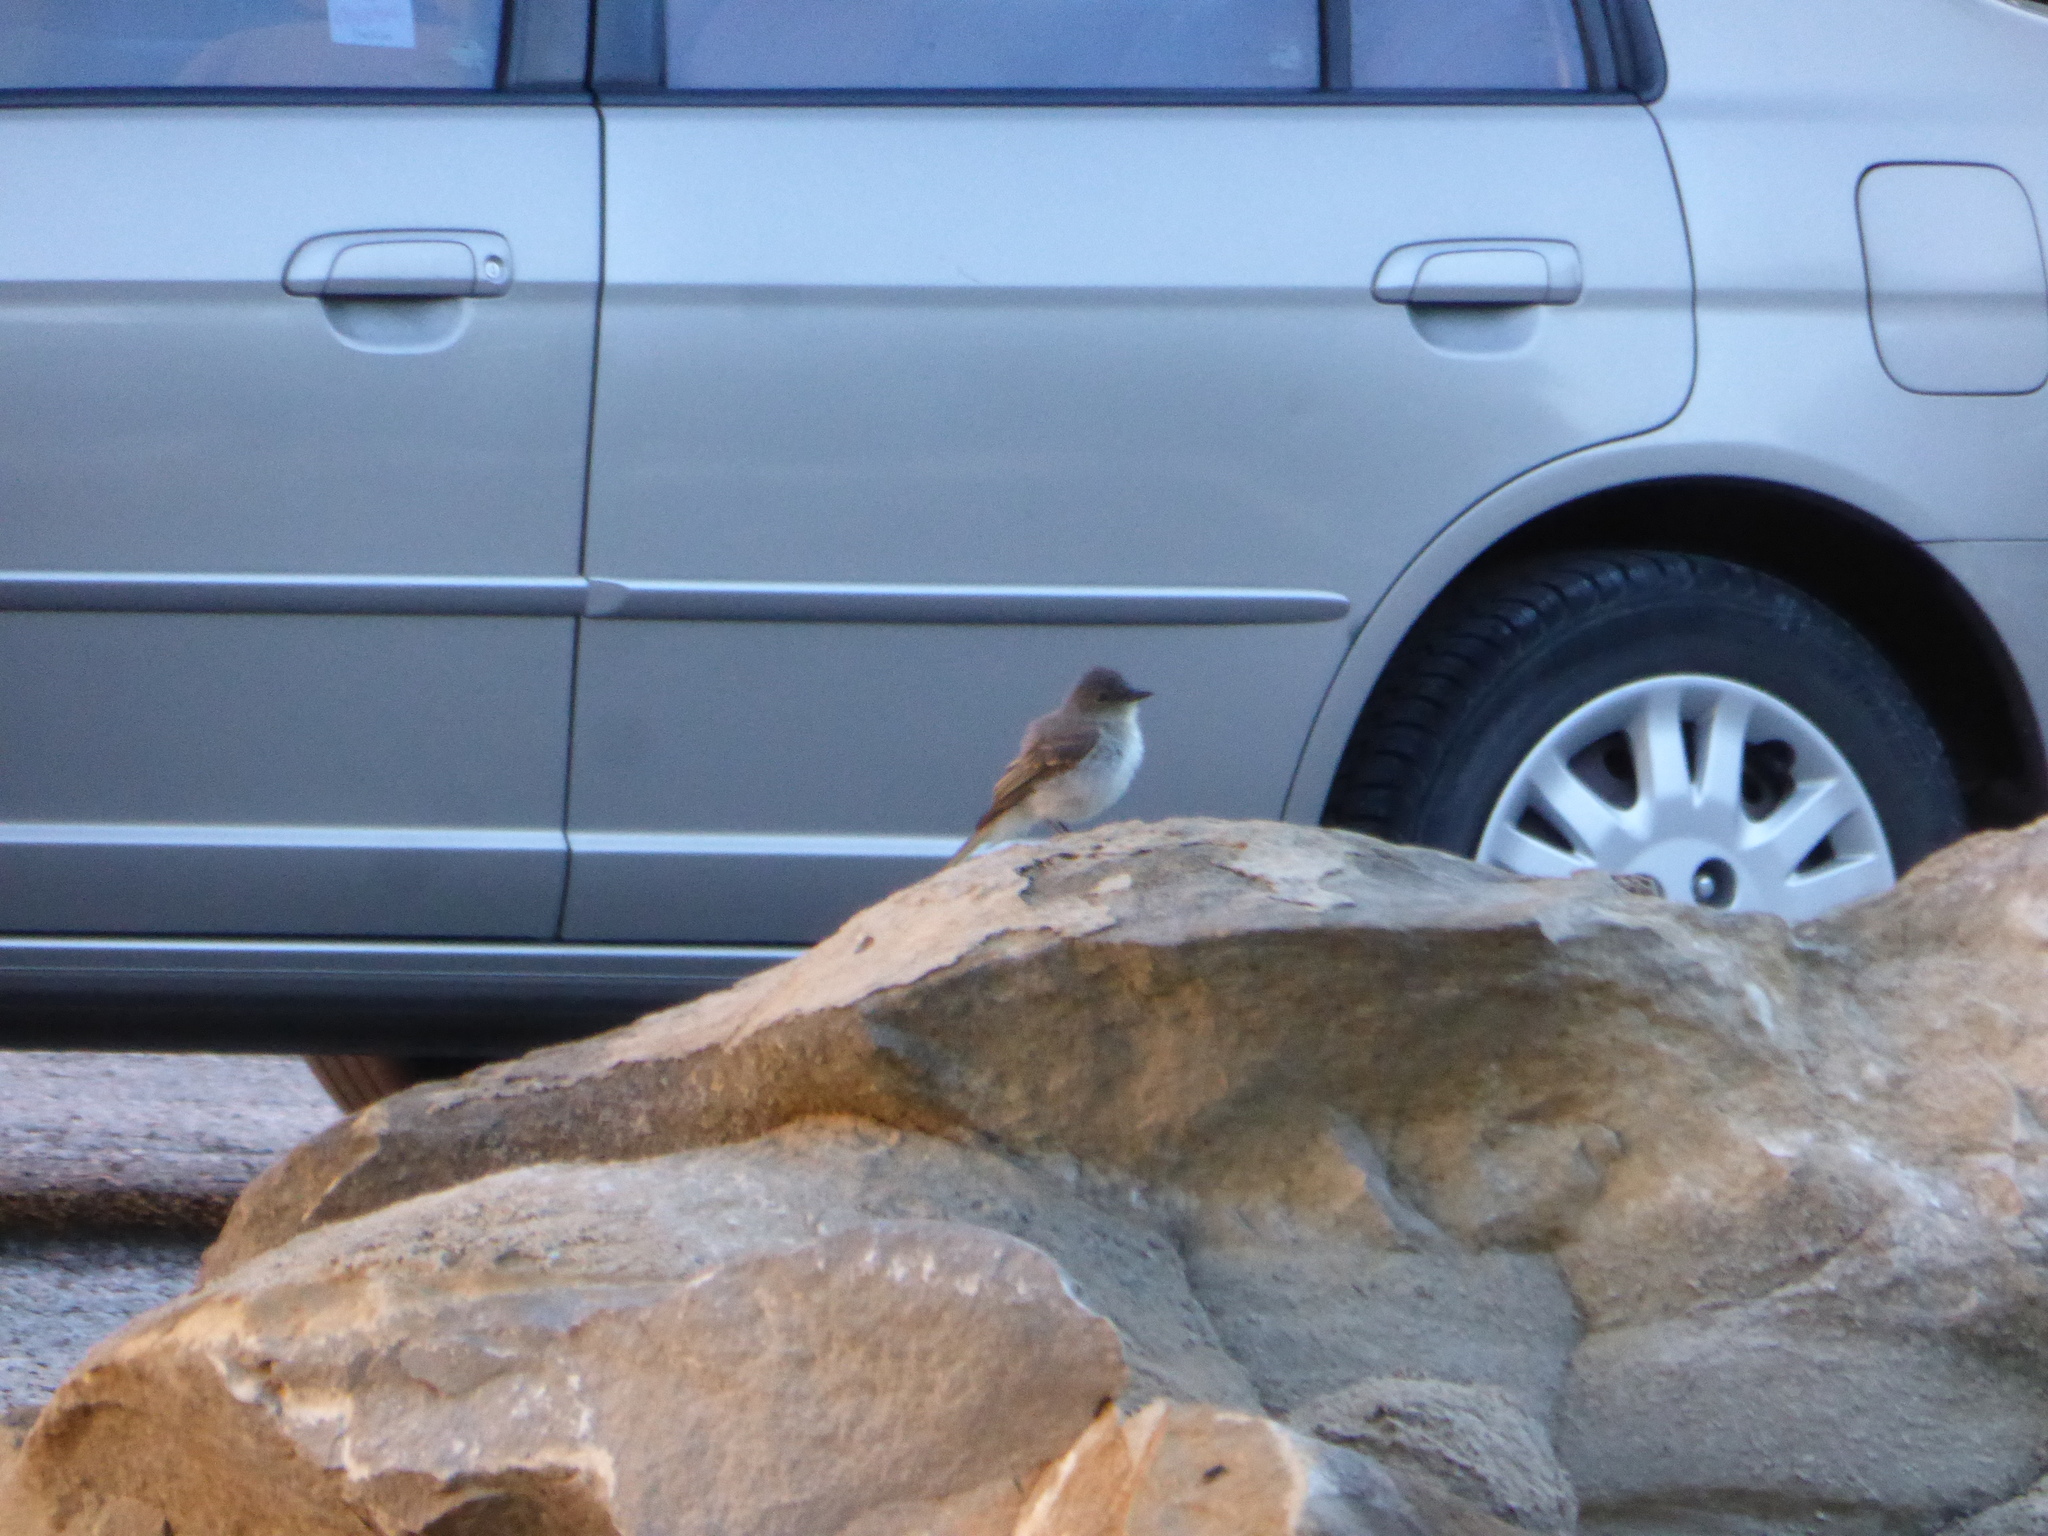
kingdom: Animalia
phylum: Chordata
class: Aves
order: Passeriformes
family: Tyrannidae
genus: Sayornis
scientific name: Sayornis phoebe
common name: Eastern phoebe
